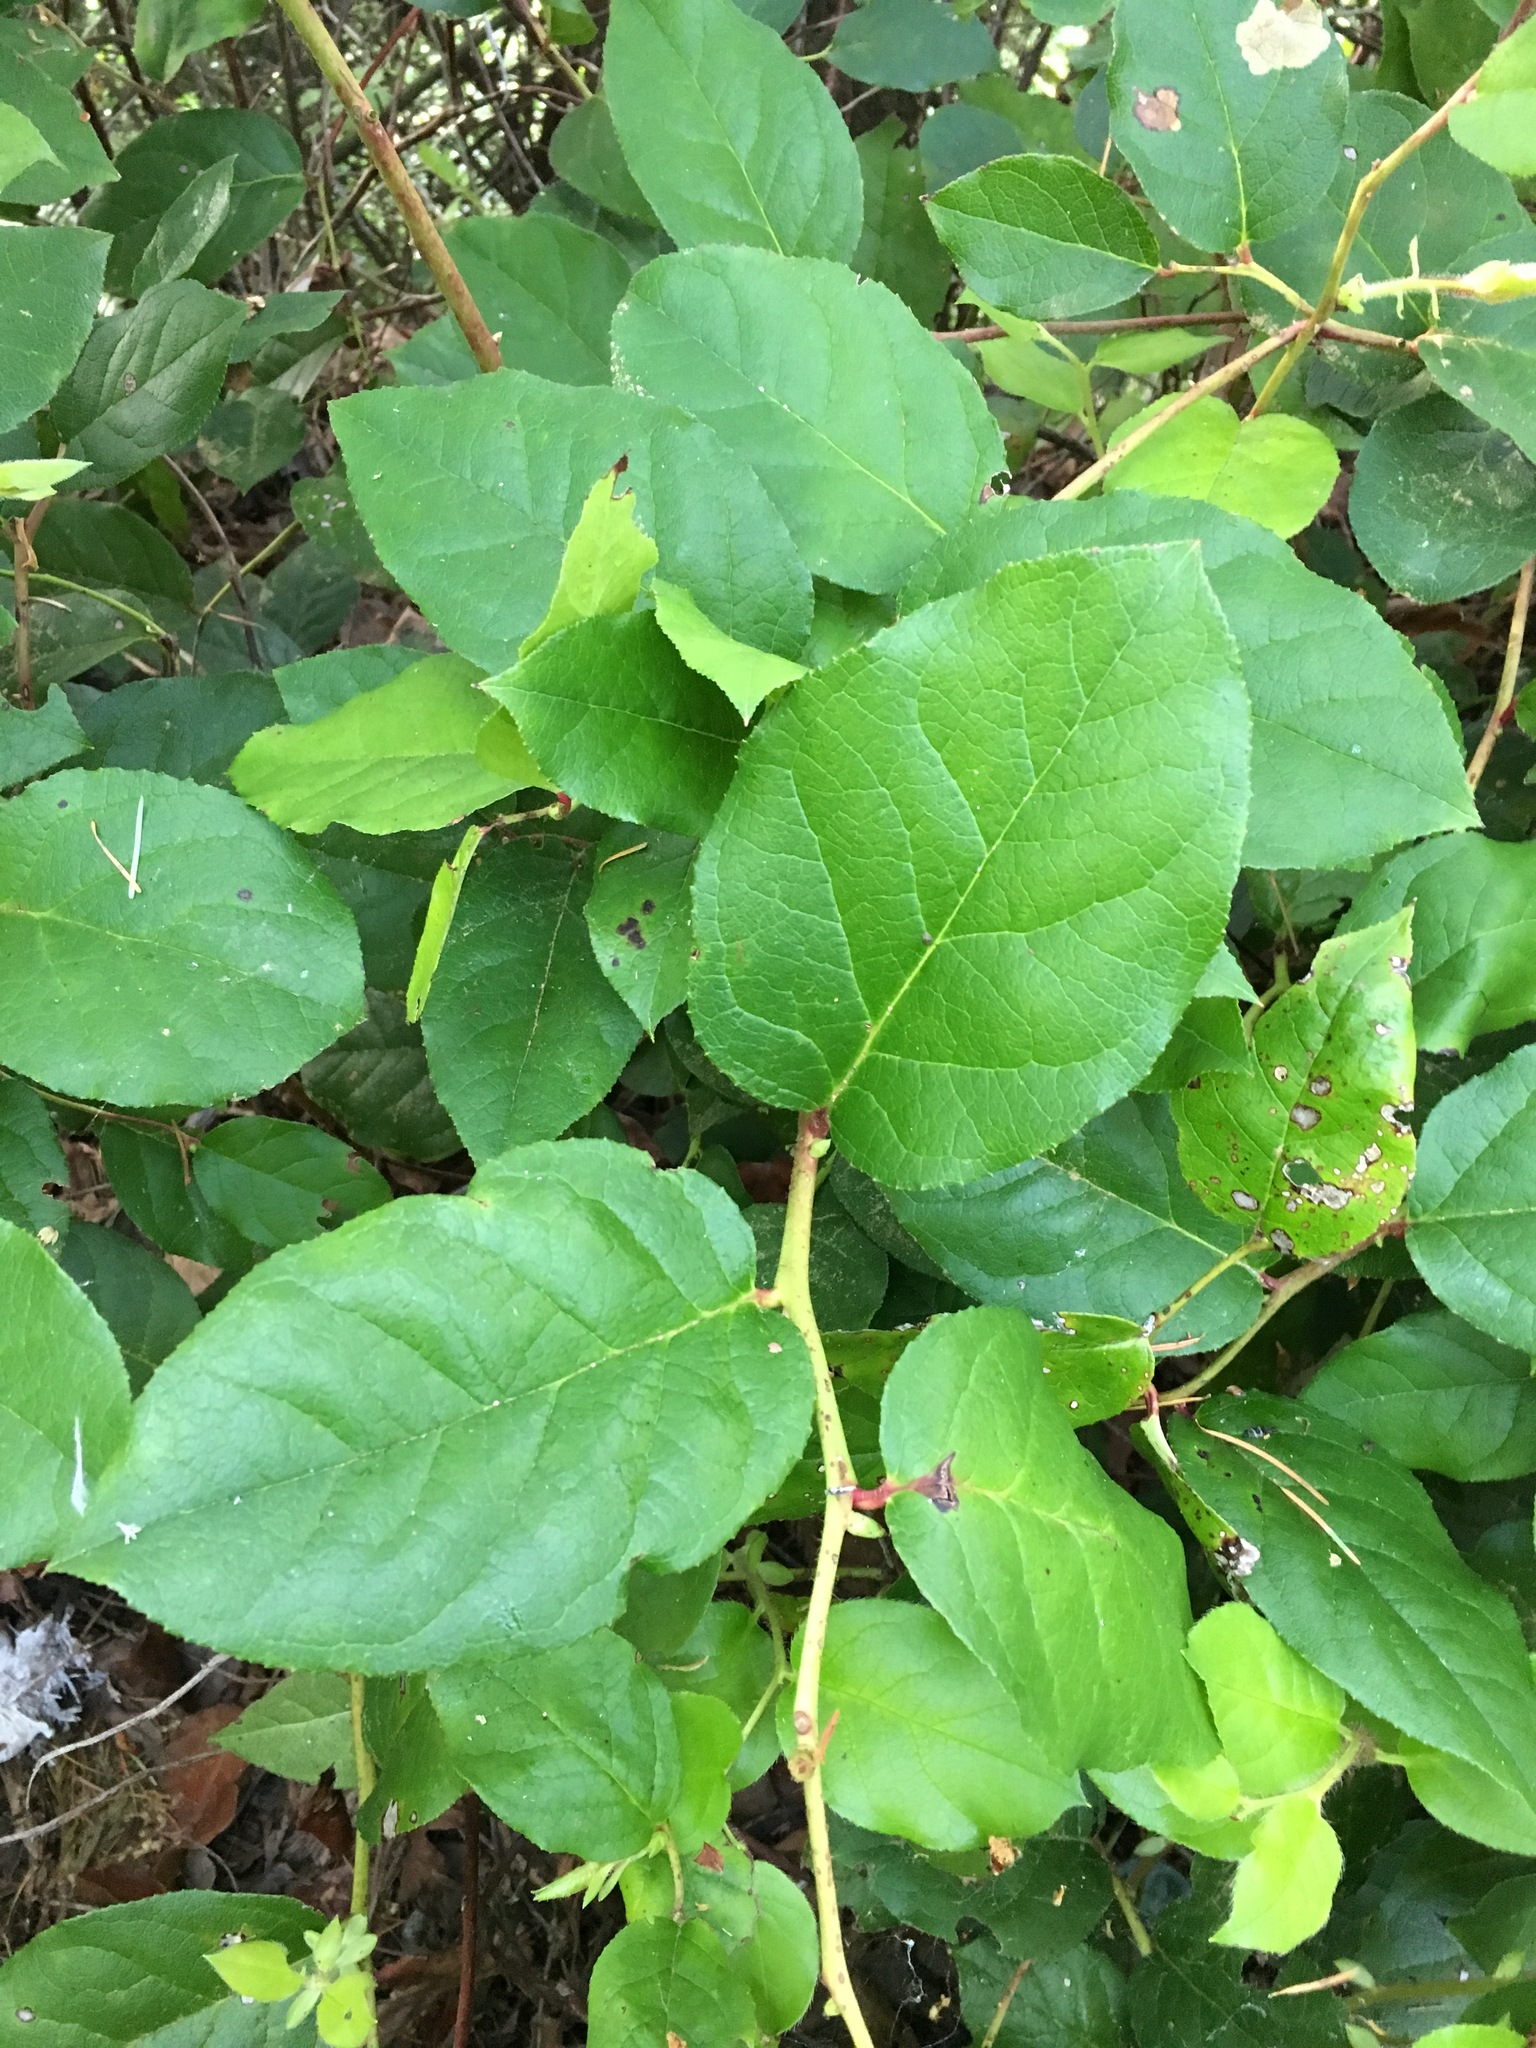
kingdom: Plantae
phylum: Tracheophyta
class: Magnoliopsida
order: Ericales
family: Ericaceae
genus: Gaultheria
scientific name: Gaultheria shallon
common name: Shallon
